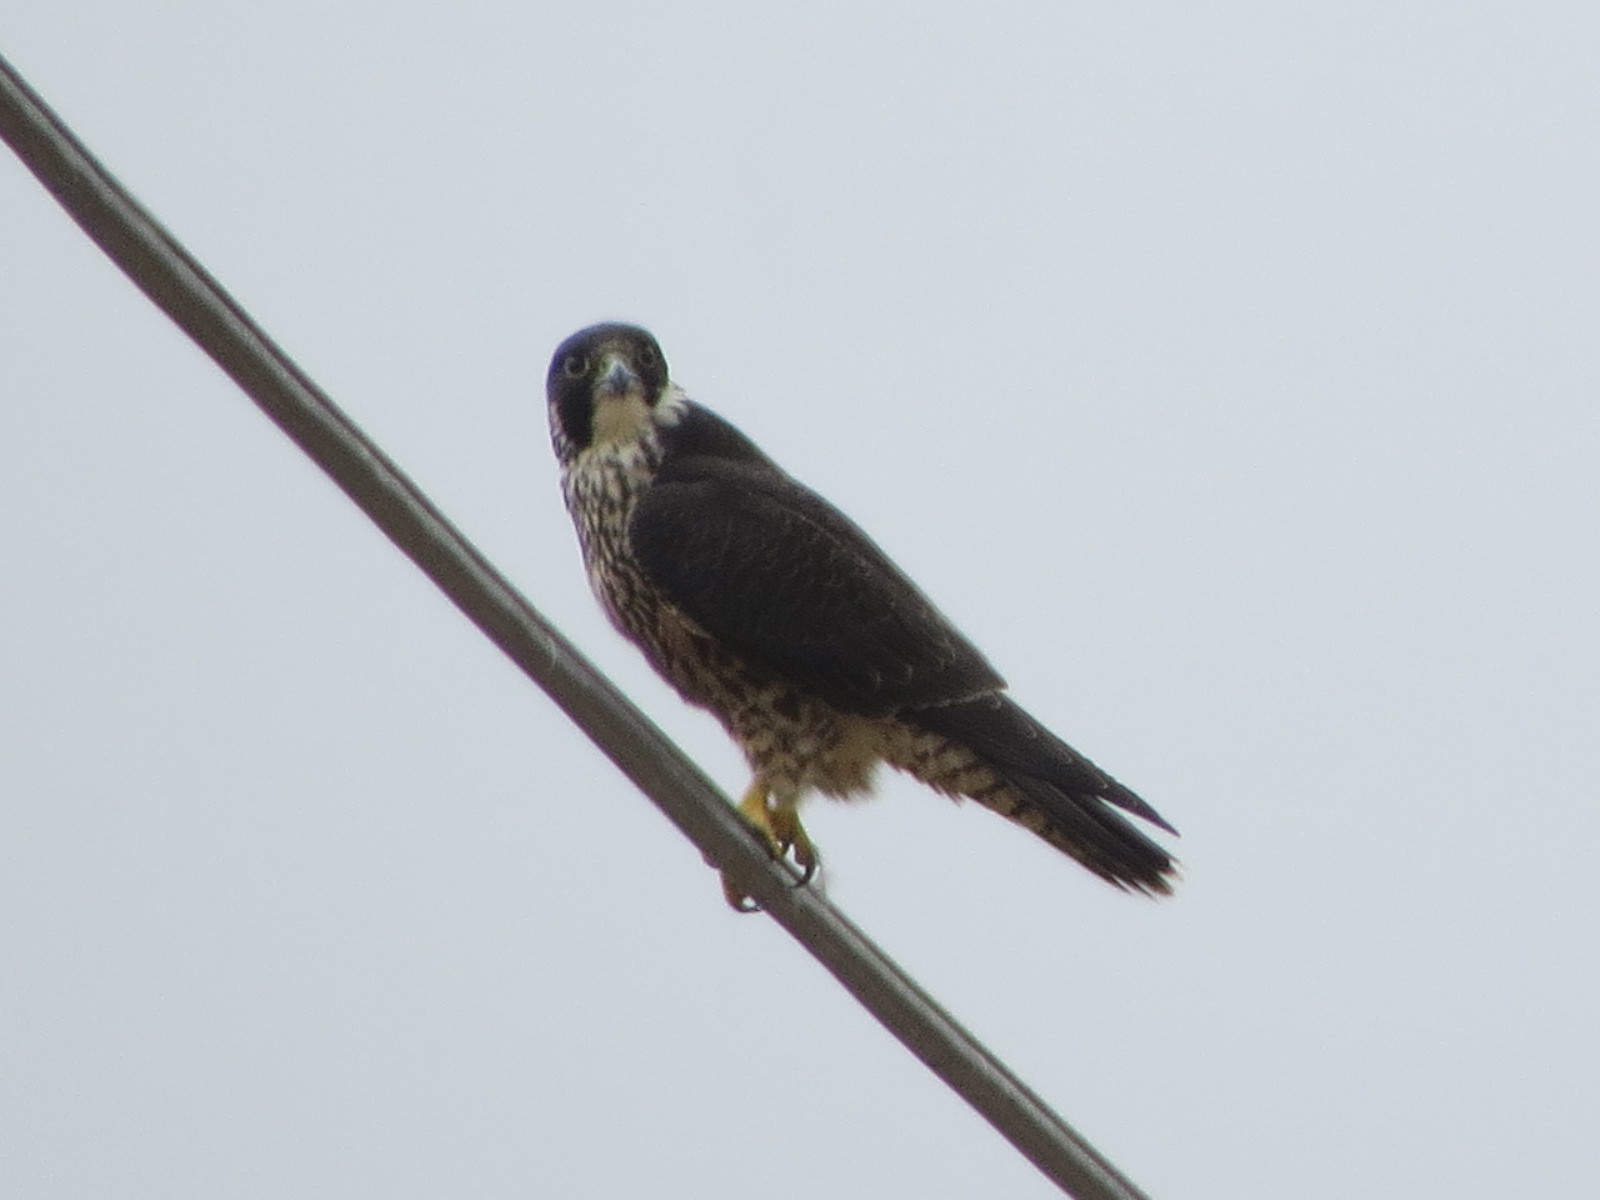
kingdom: Animalia
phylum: Chordata
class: Aves
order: Falconiformes
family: Falconidae
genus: Falco
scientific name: Falco peregrinus
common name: Peregrine falcon
